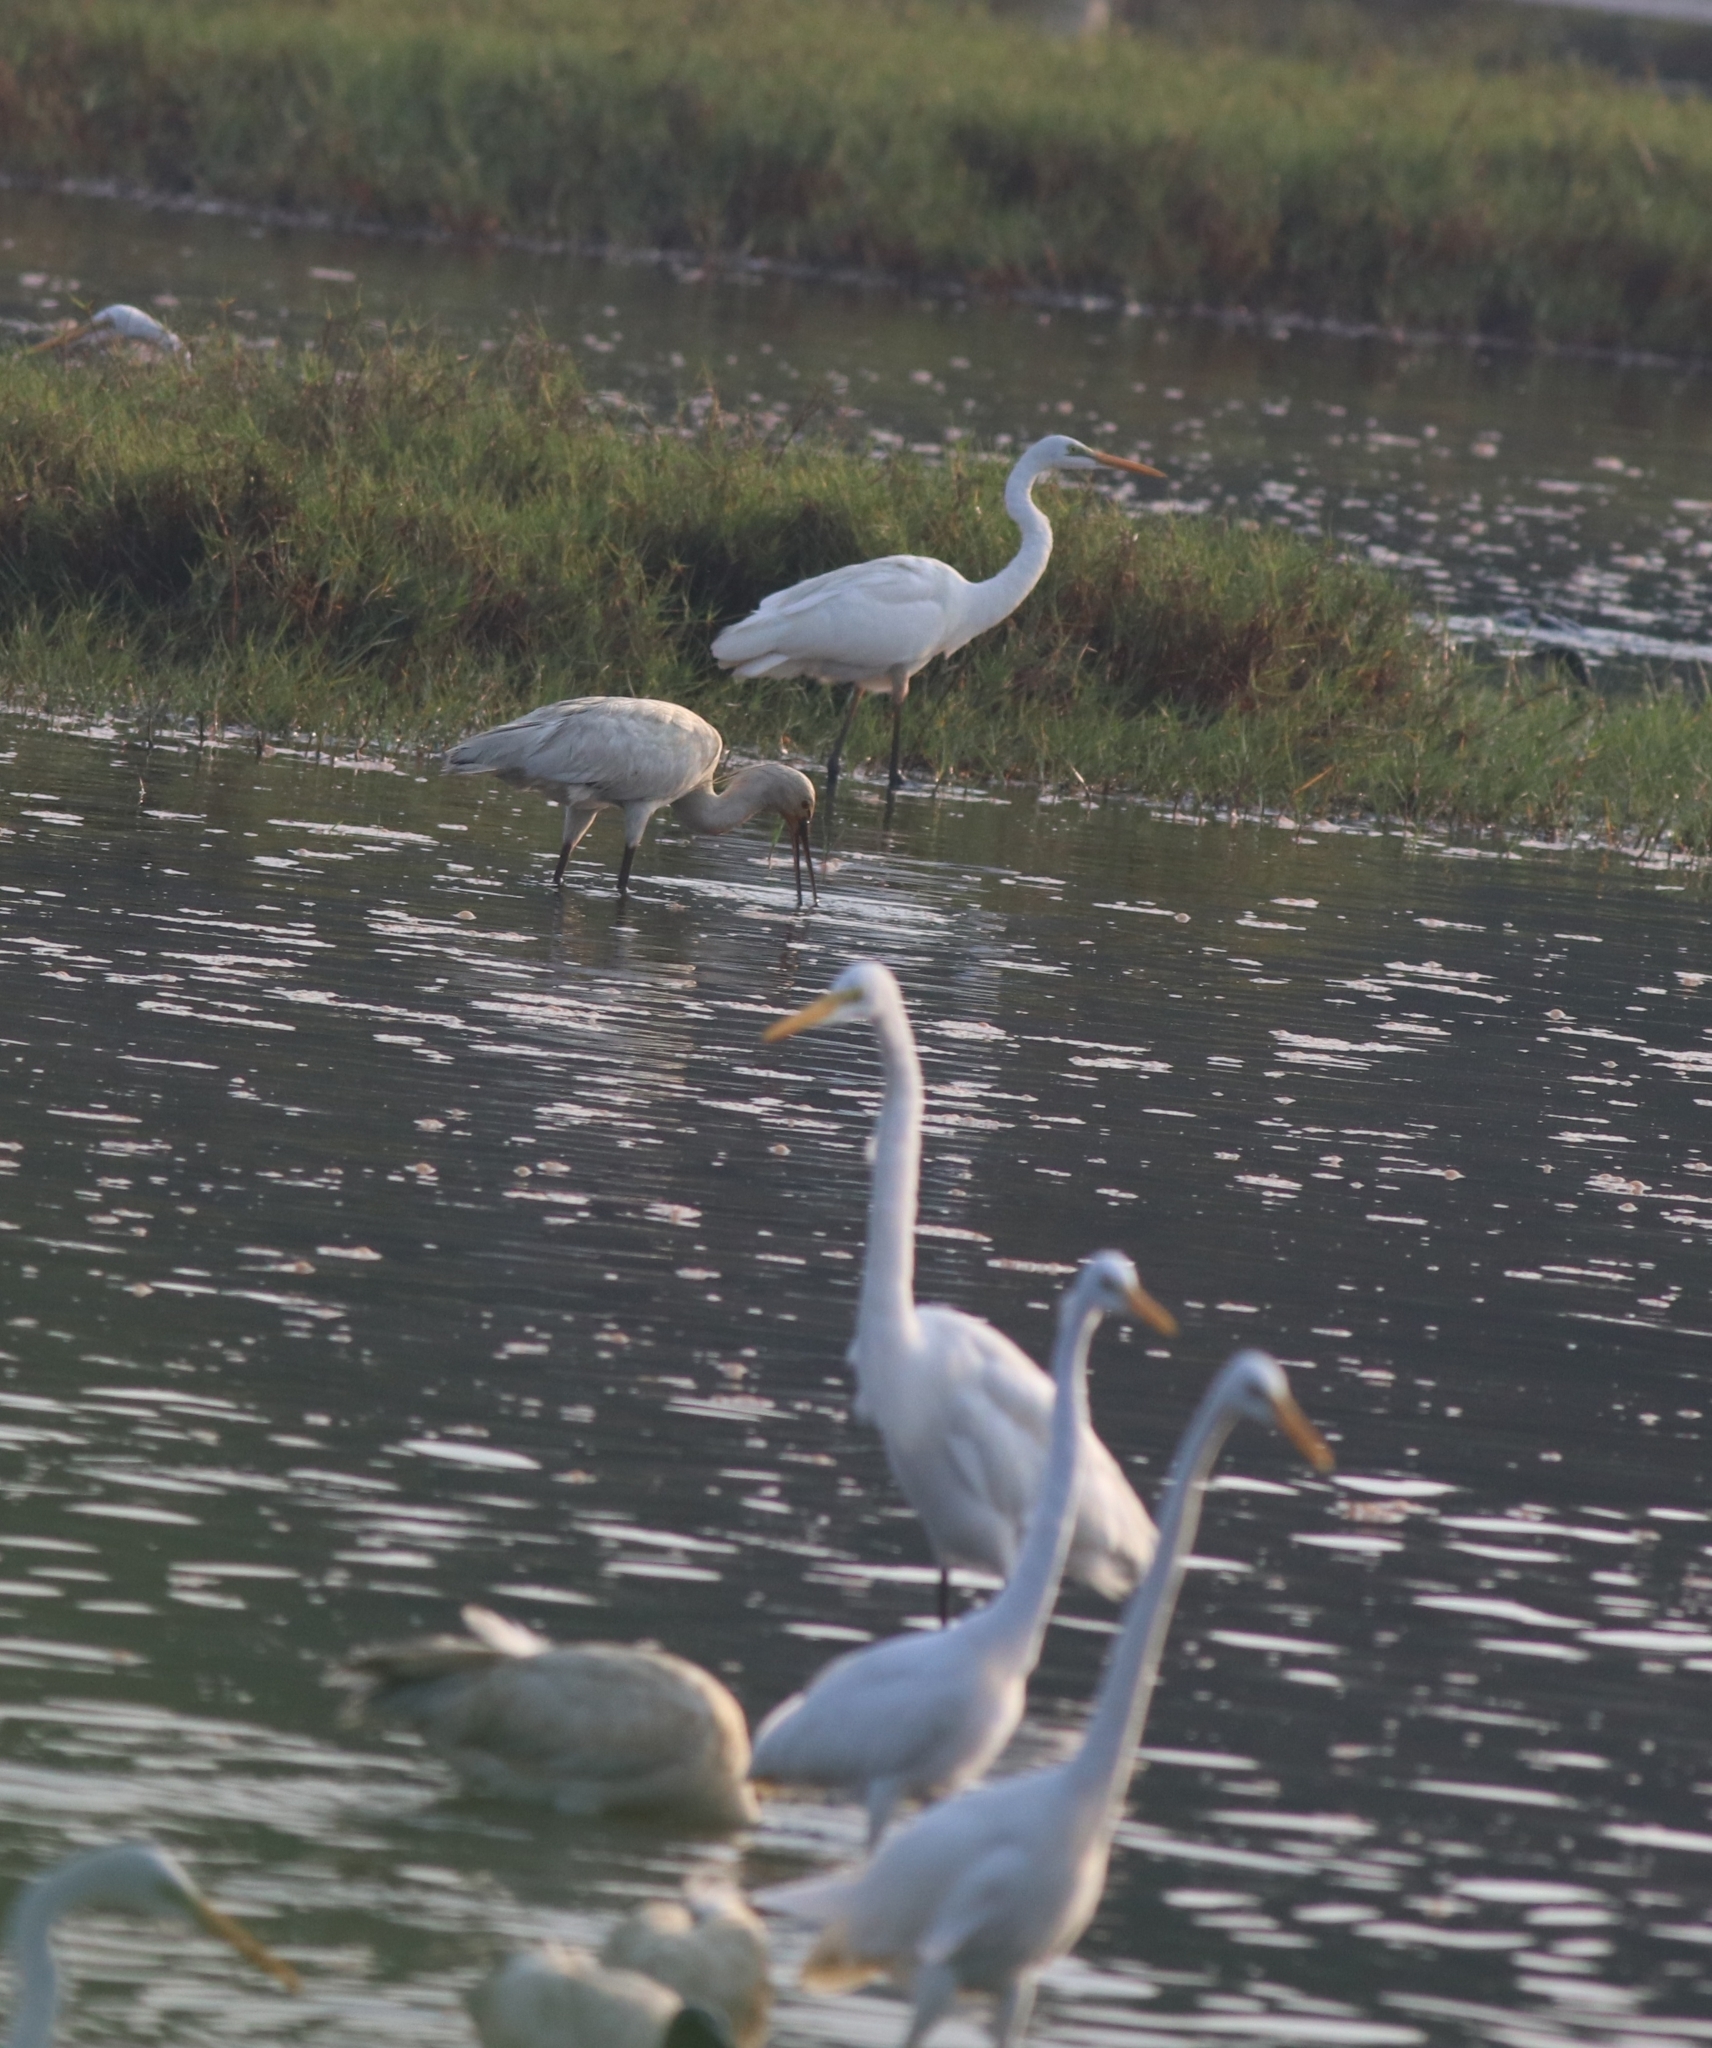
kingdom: Animalia
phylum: Chordata
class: Aves
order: Pelecaniformes
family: Ardeidae
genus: Ardea
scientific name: Ardea alba
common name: Great egret
